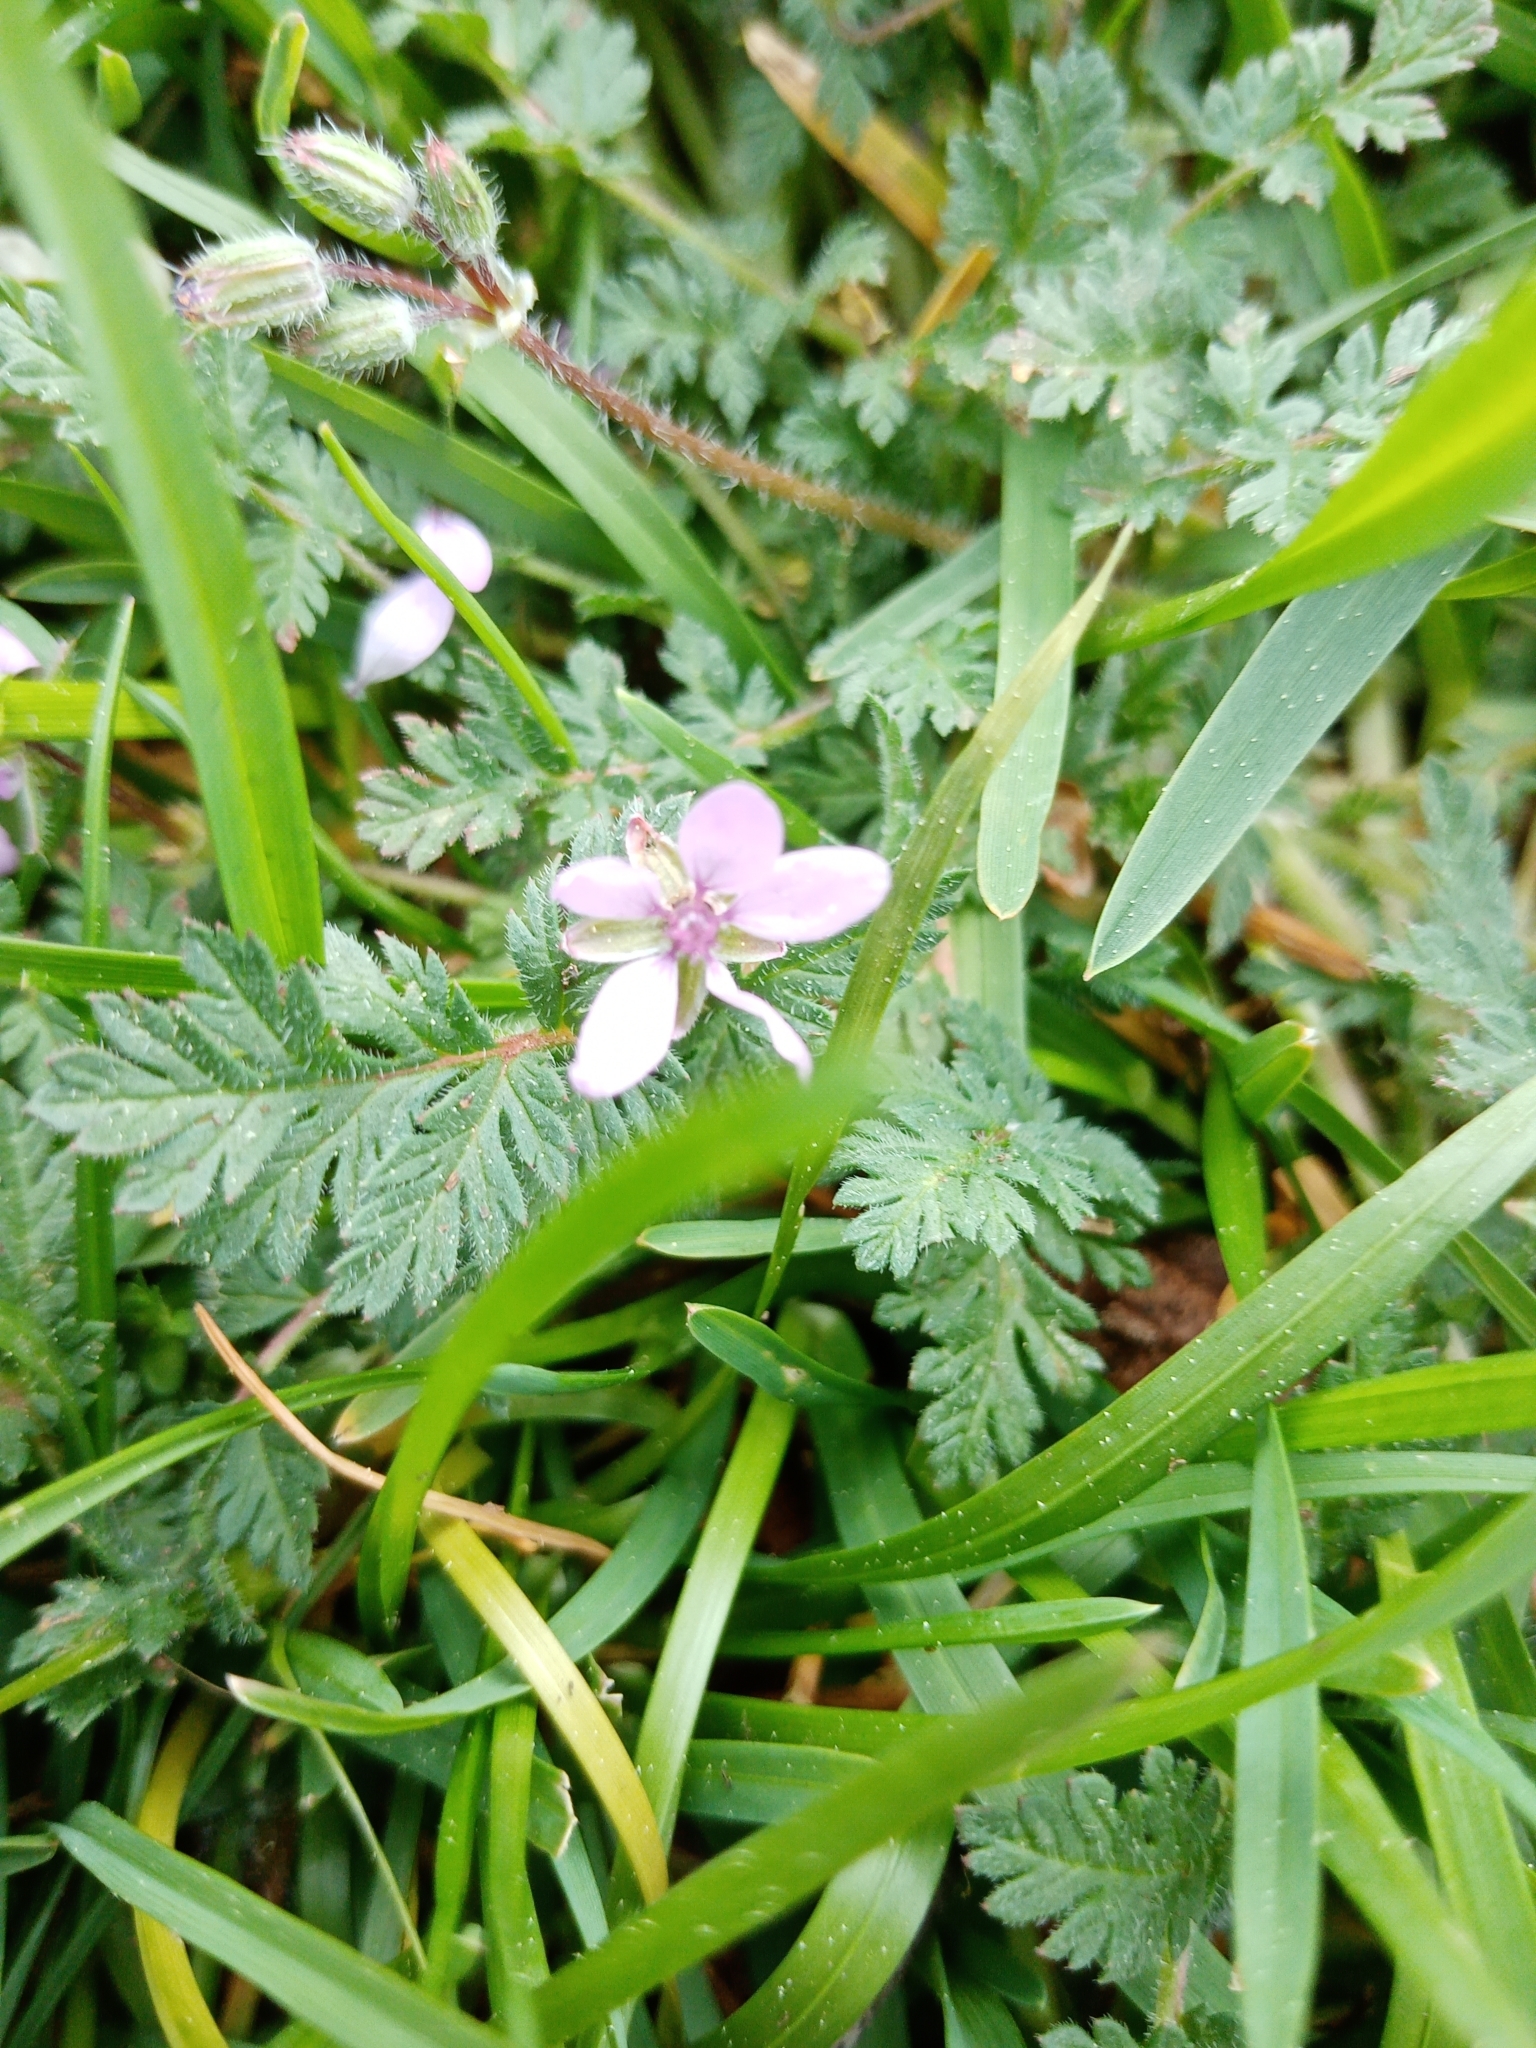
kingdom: Plantae
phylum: Tracheophyta
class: Magnoliopsida
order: Geraniales
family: Geraniaceae
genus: Erodium
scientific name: Erodium cicutarium
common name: Common stork's-bill
